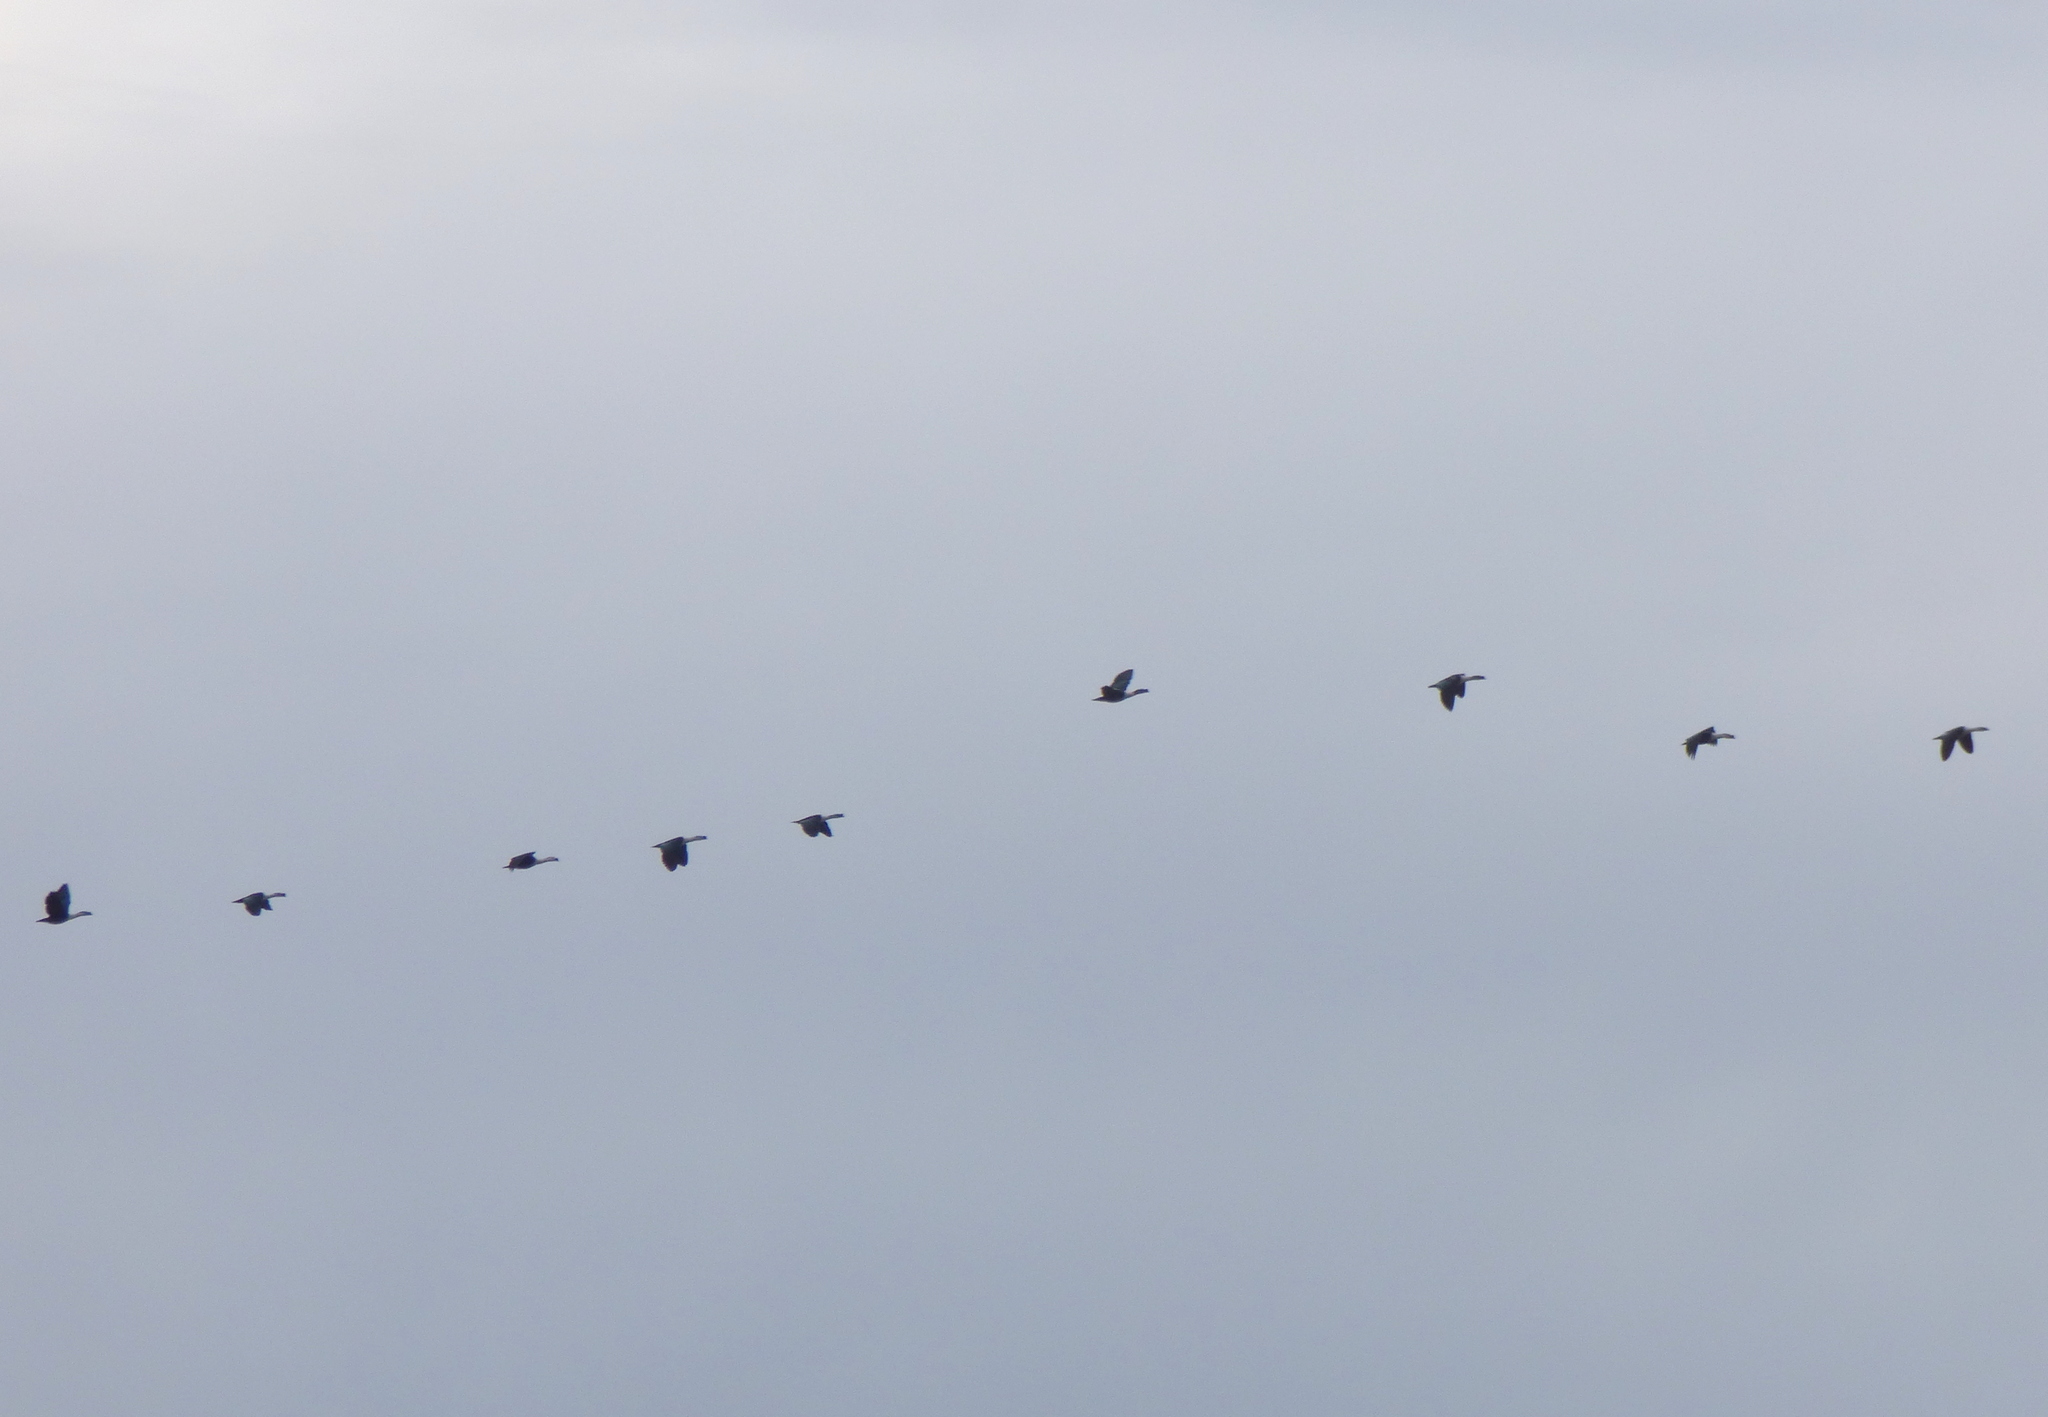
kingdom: Animalia
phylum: Chordata
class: Aves
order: Anseriformes
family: Anatidae
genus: Sarkidiornis
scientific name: Sarkidiornis sylvicola
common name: Comb duck
